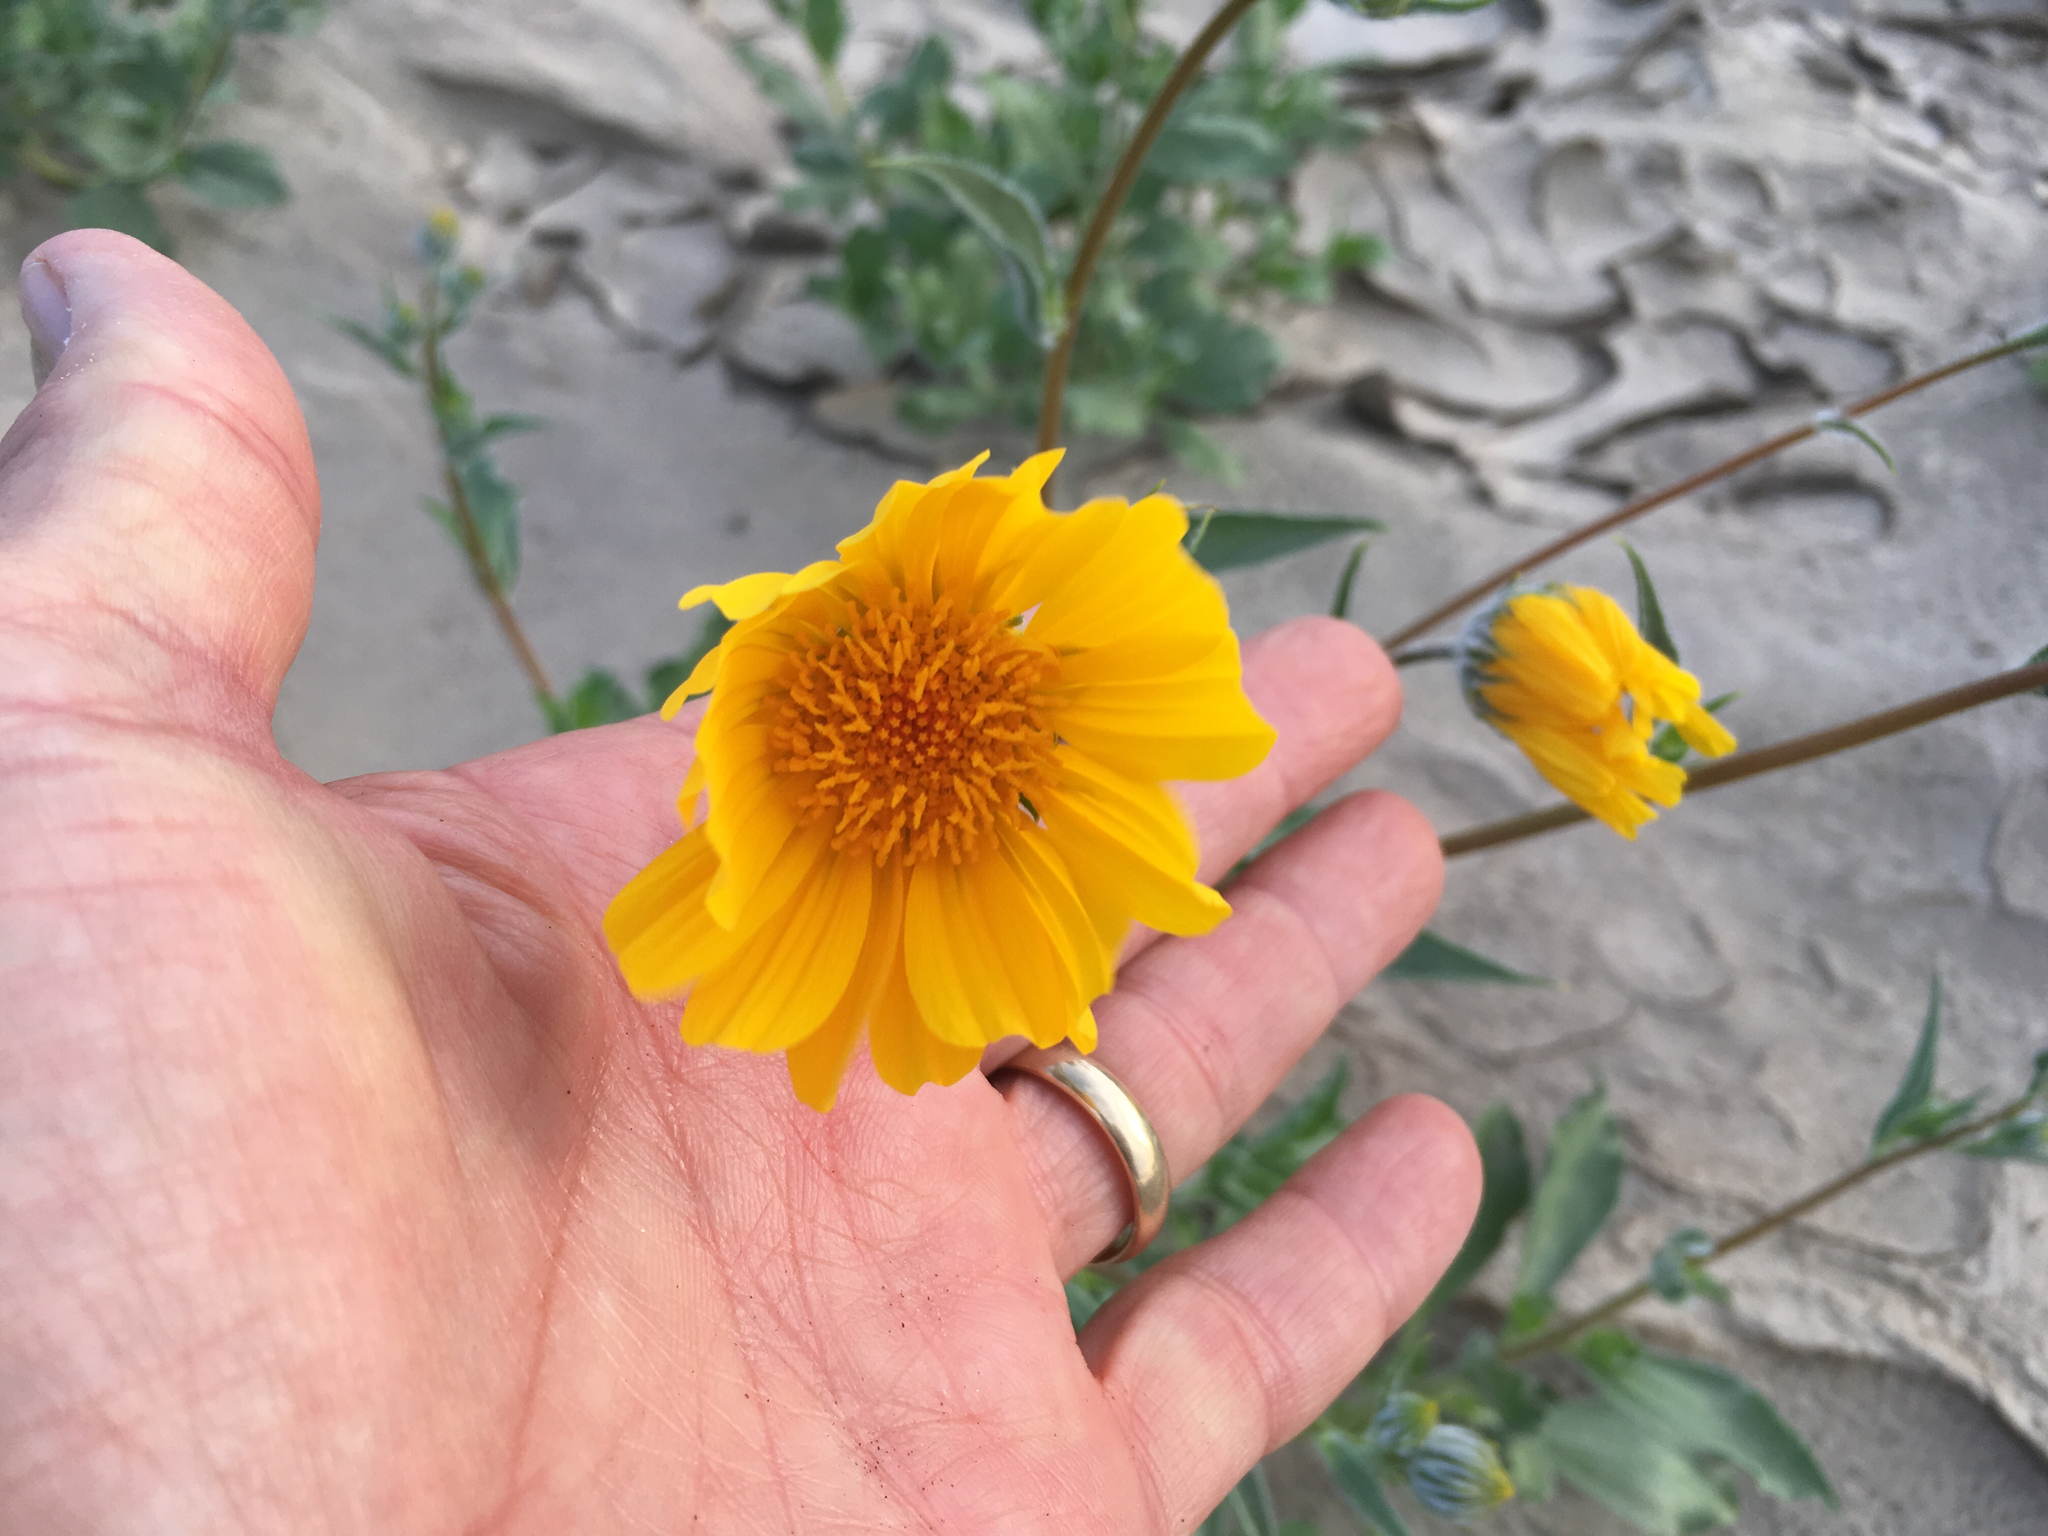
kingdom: Plantae
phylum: Tracheophyta
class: Magnoliopsida
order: Asterales
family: Asteraceae
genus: Geraea
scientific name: Geraea canescens
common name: Desert-gold
